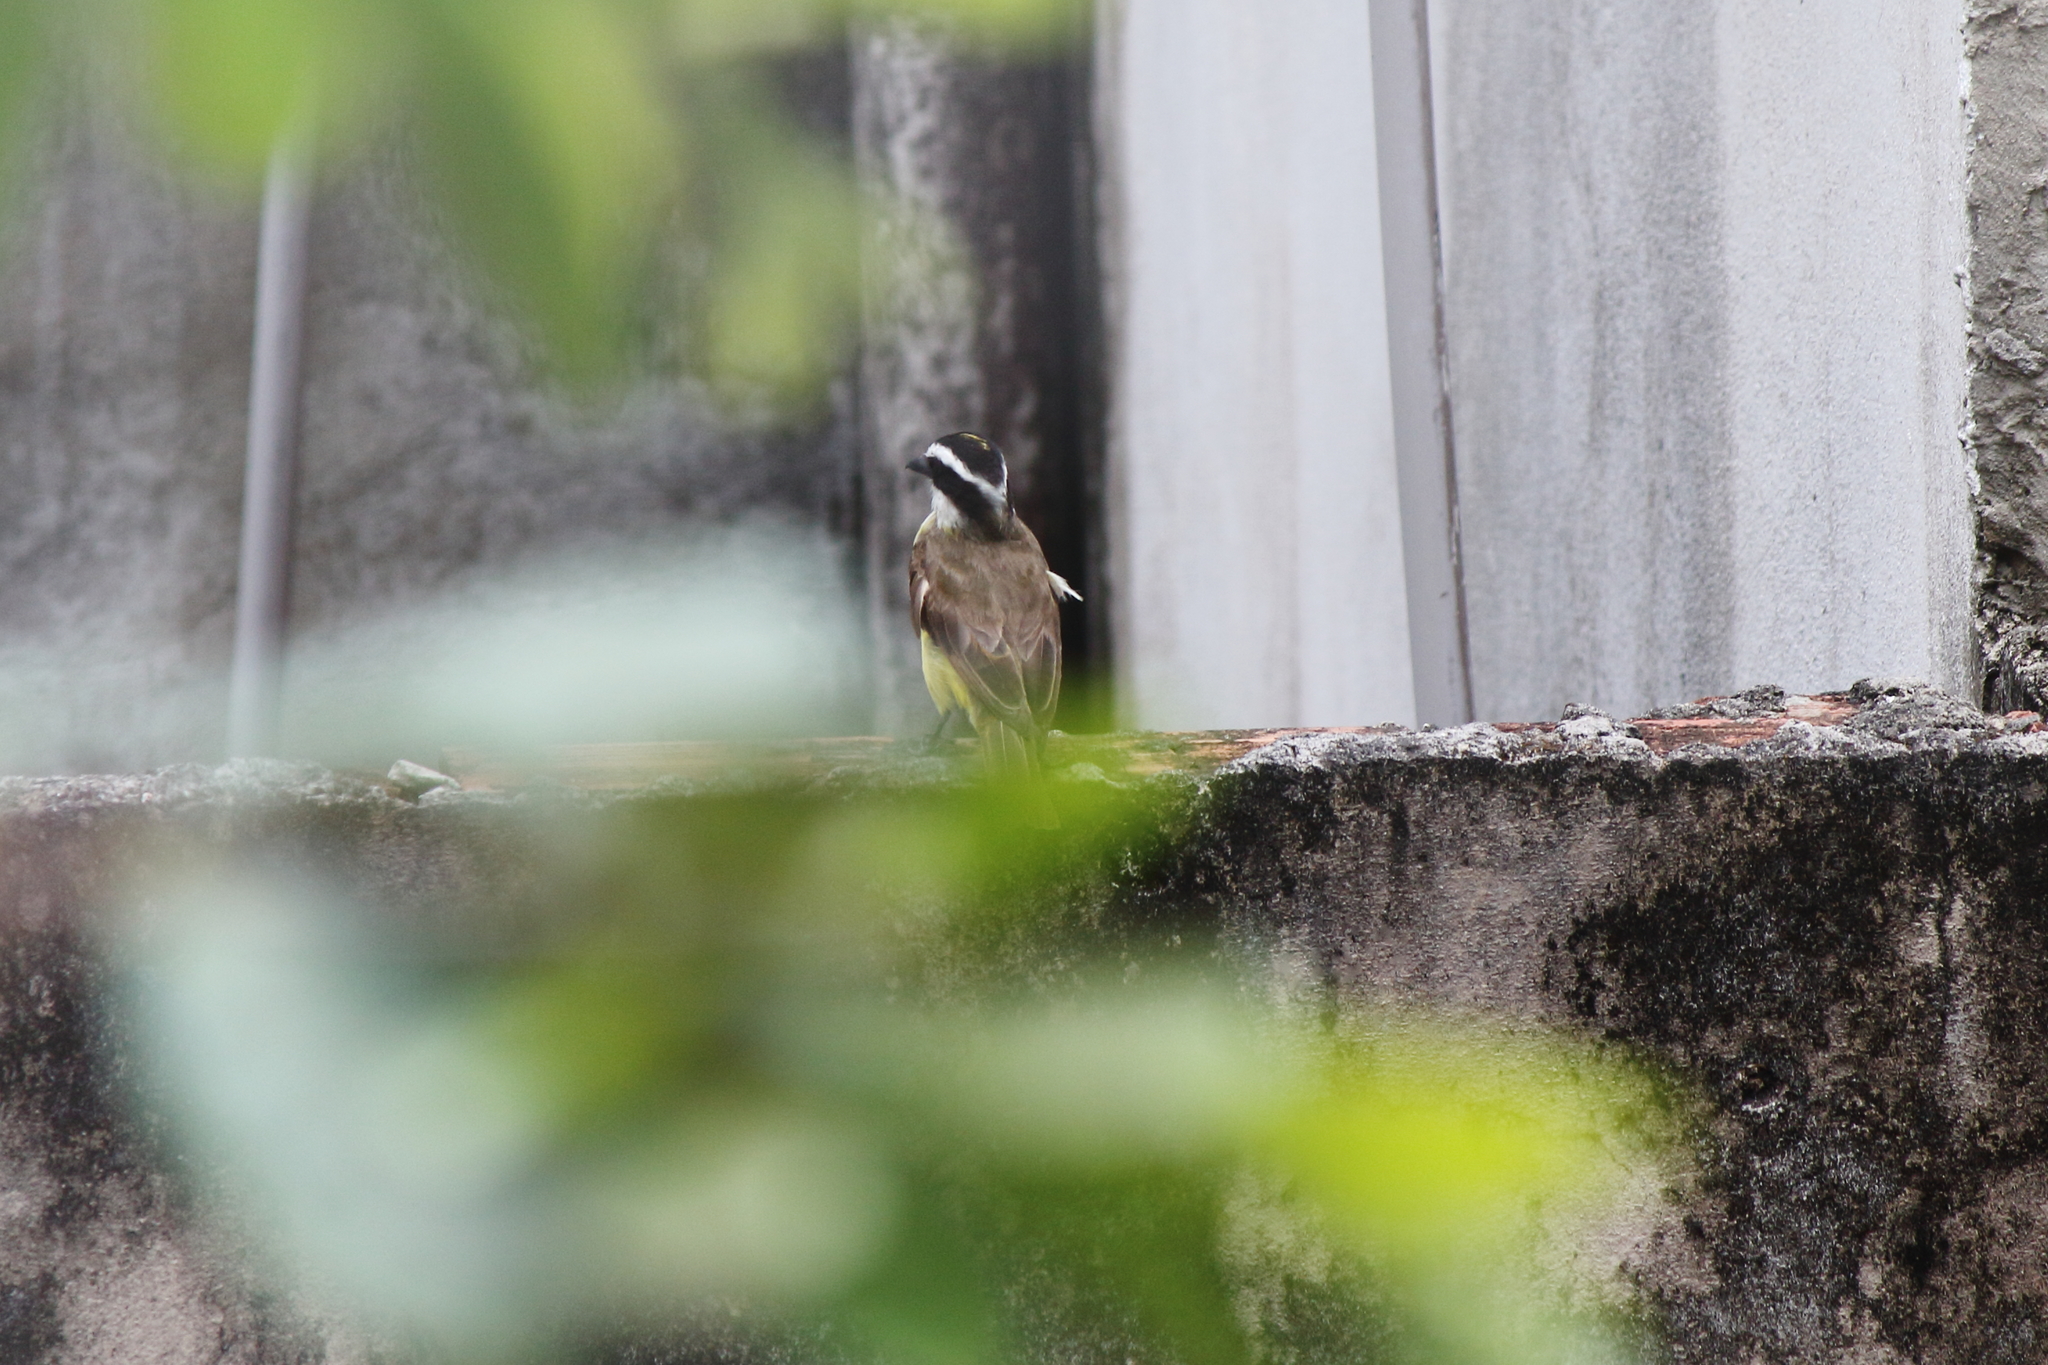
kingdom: Animalia
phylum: Chordata
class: Aves
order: Passeriformes
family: Tyrannidae
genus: Pitangus
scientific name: Pitangus sulphuratus
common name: Great kiskadee
